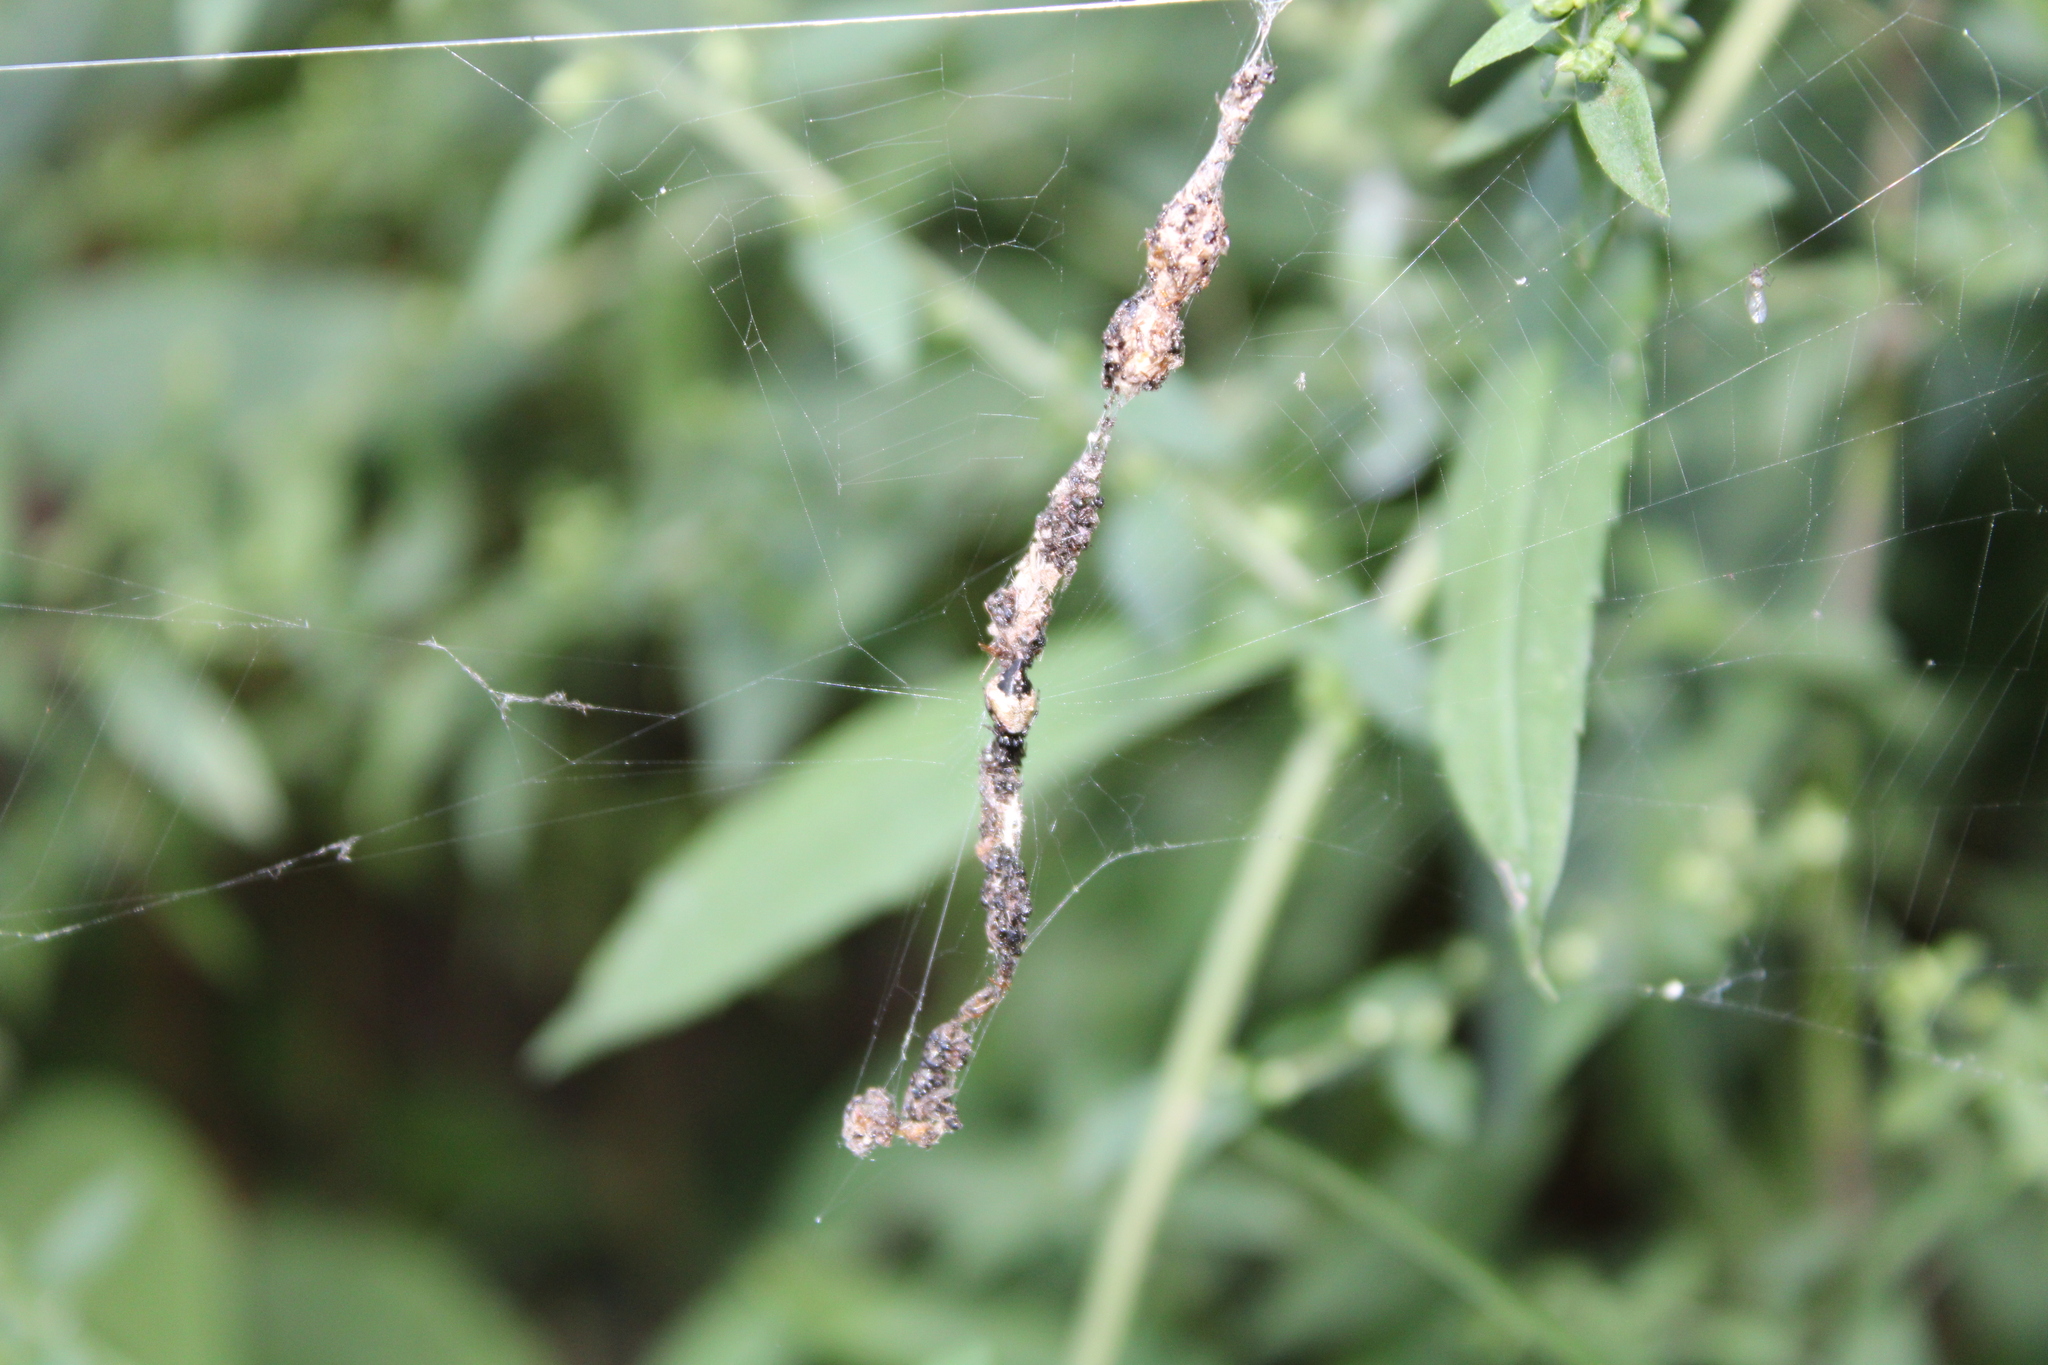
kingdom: Animalia
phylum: Arthropoda
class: Arachnida
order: Araneae
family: Araneidae
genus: Cyclosa
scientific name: Cyclosa turbinata
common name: Orb weavers
